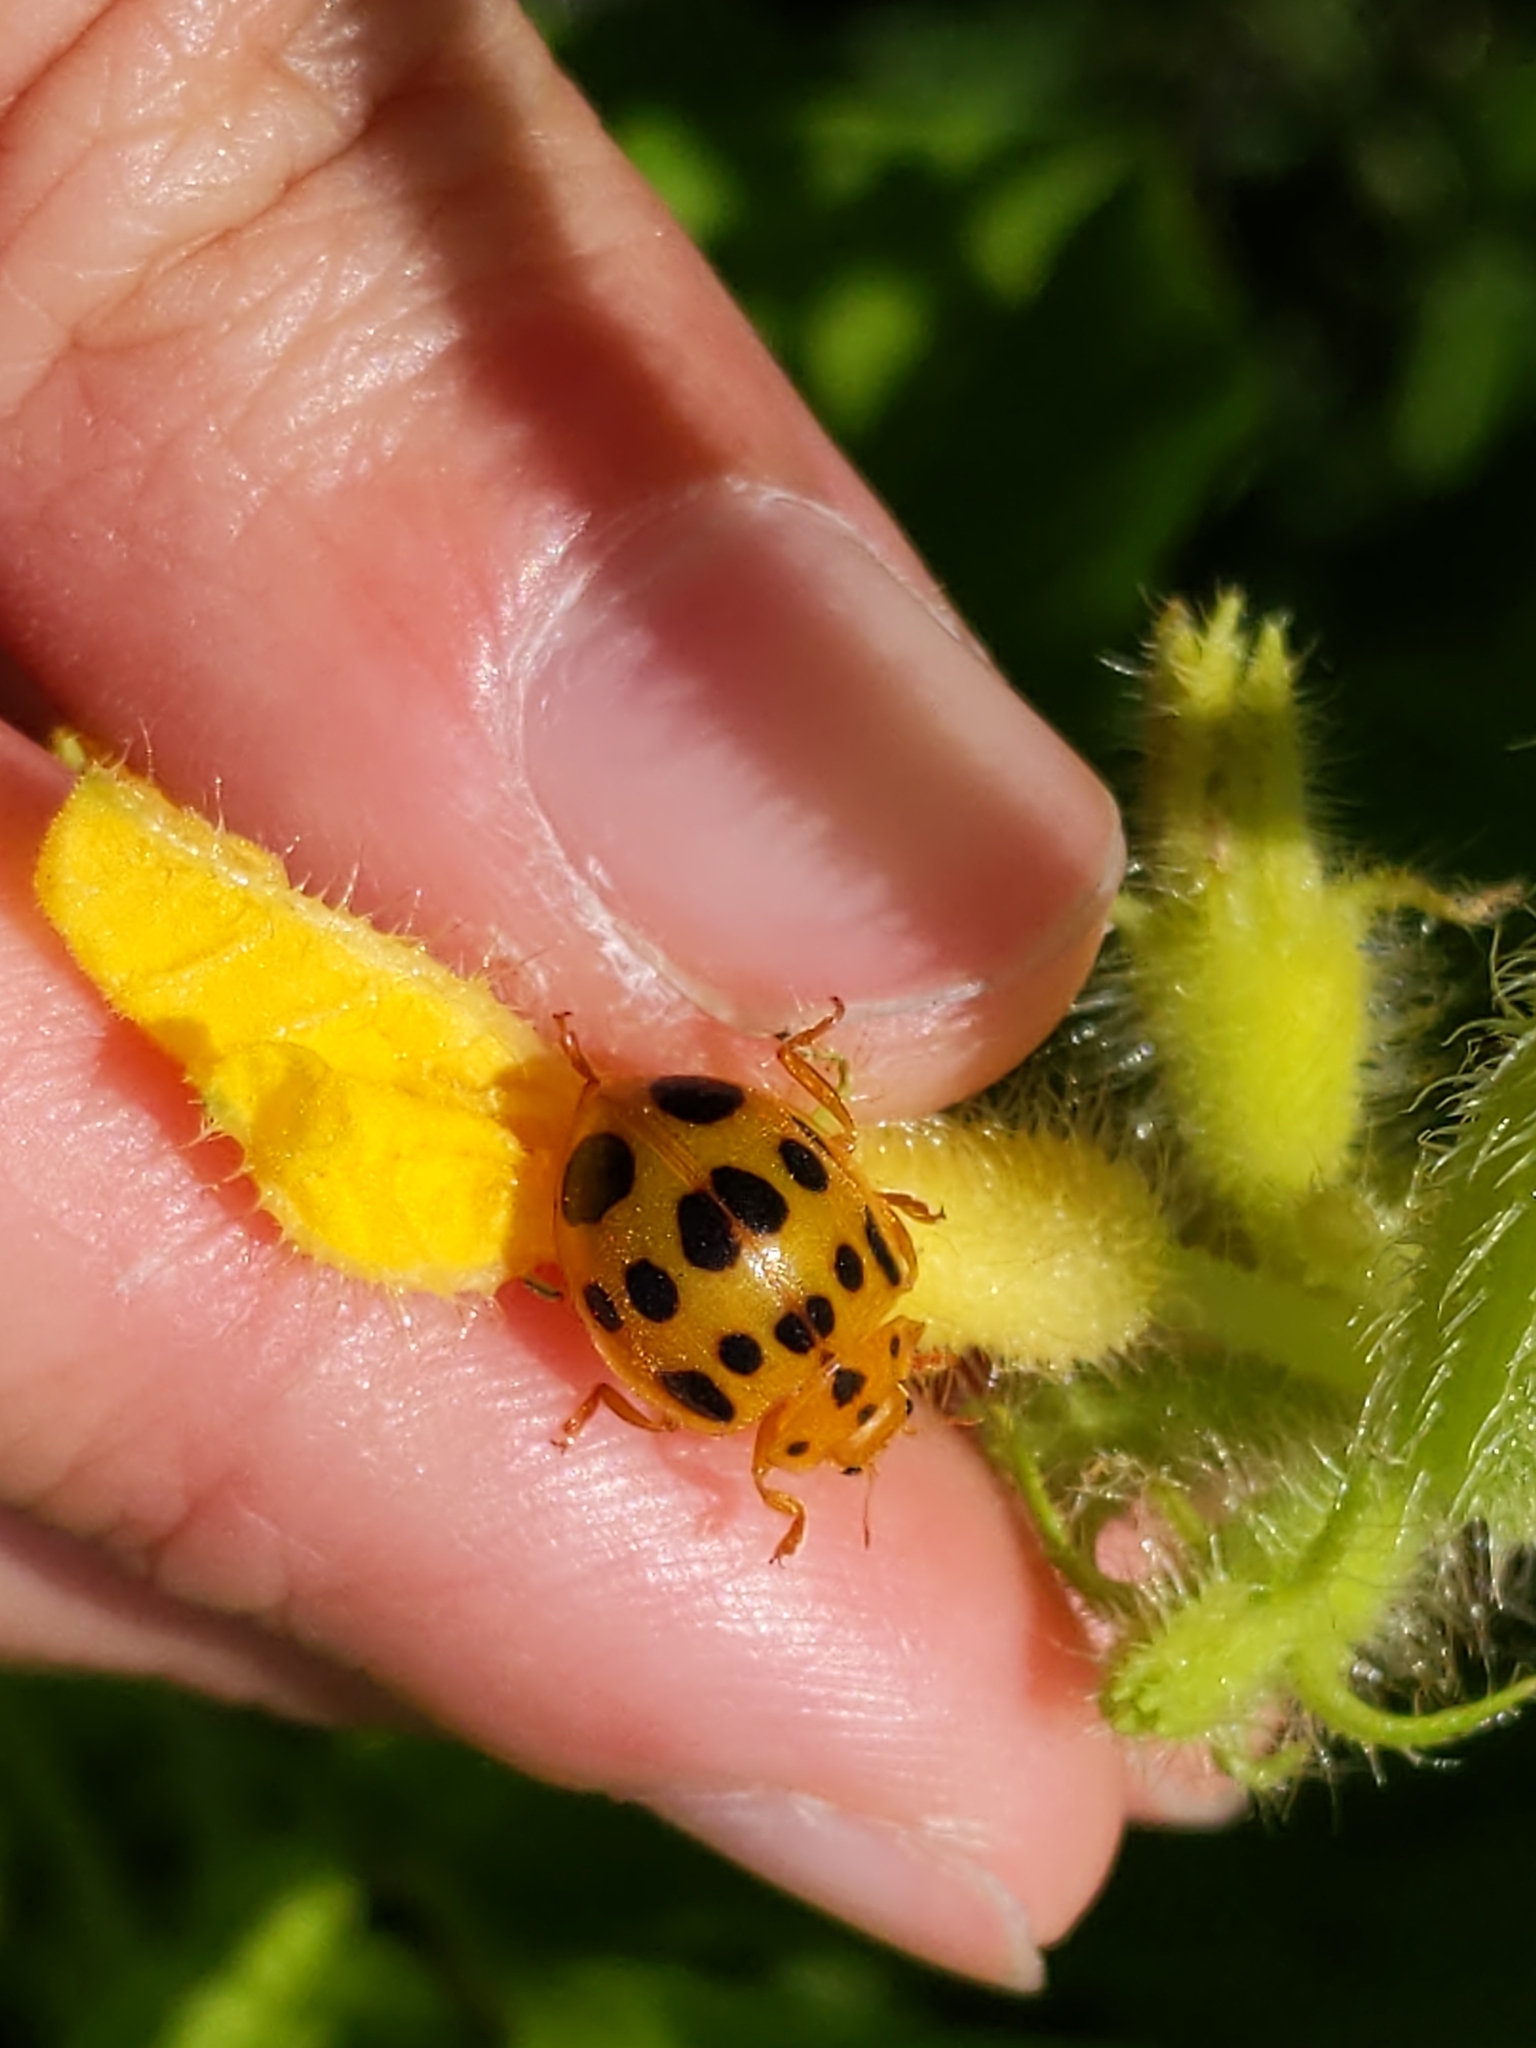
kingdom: Animalia
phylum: Arthropoda
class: Insecta
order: Coleoptera
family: Coccinellidae
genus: Epilachna
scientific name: Epilachna borealis
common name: Squash beetle
